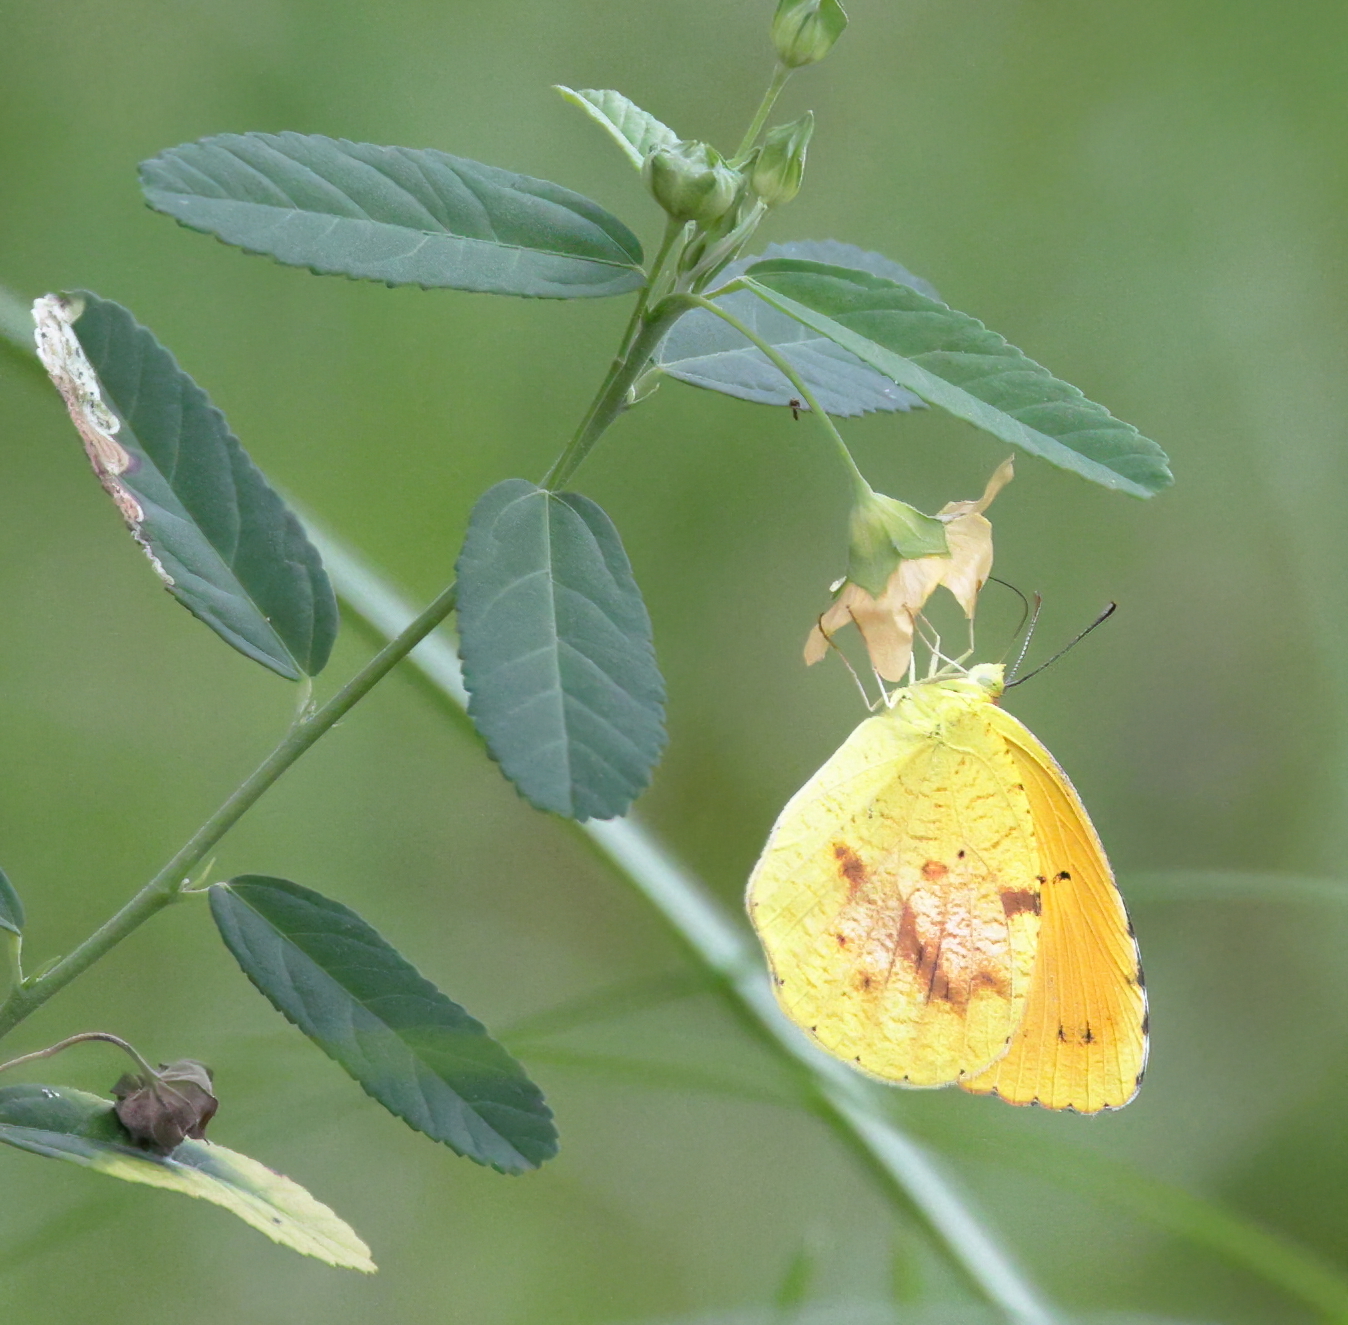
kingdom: Animalia
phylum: Arthropoda
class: Insecta
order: Lepidoptera
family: Pieridae
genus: Abaeis
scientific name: Abaeis nicippe
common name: Sleepy orange
